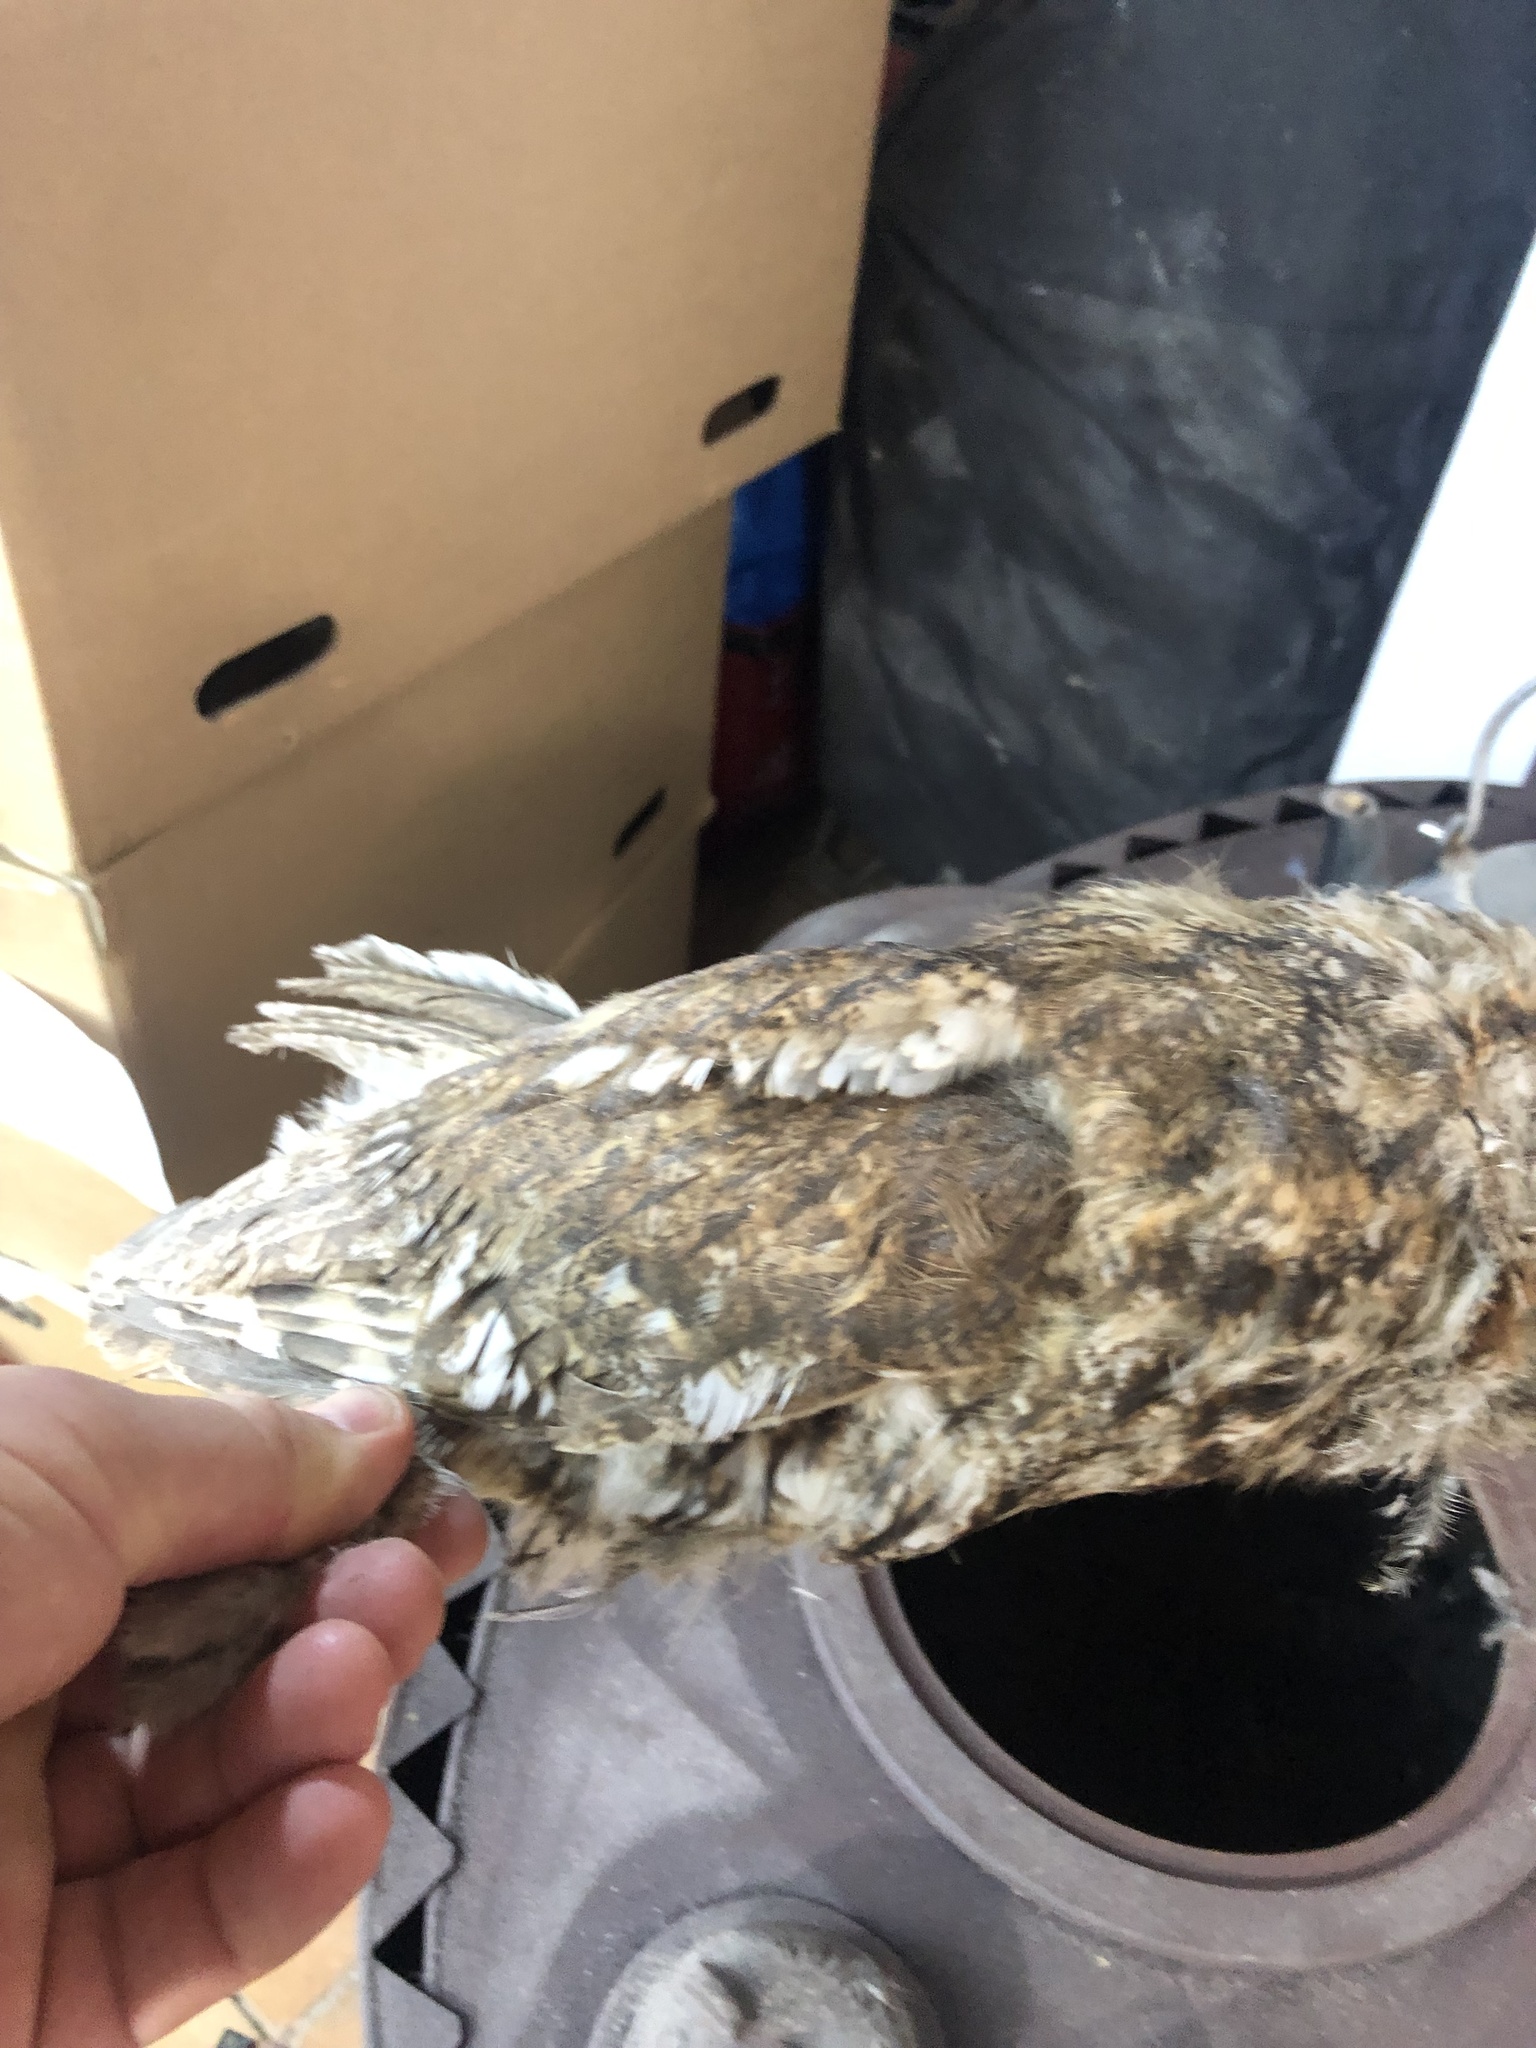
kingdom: Animalia
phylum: Chordata
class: Aves
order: Strigiformes
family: Strigidae
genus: Strix
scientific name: Strix aluco
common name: Tawny owl
